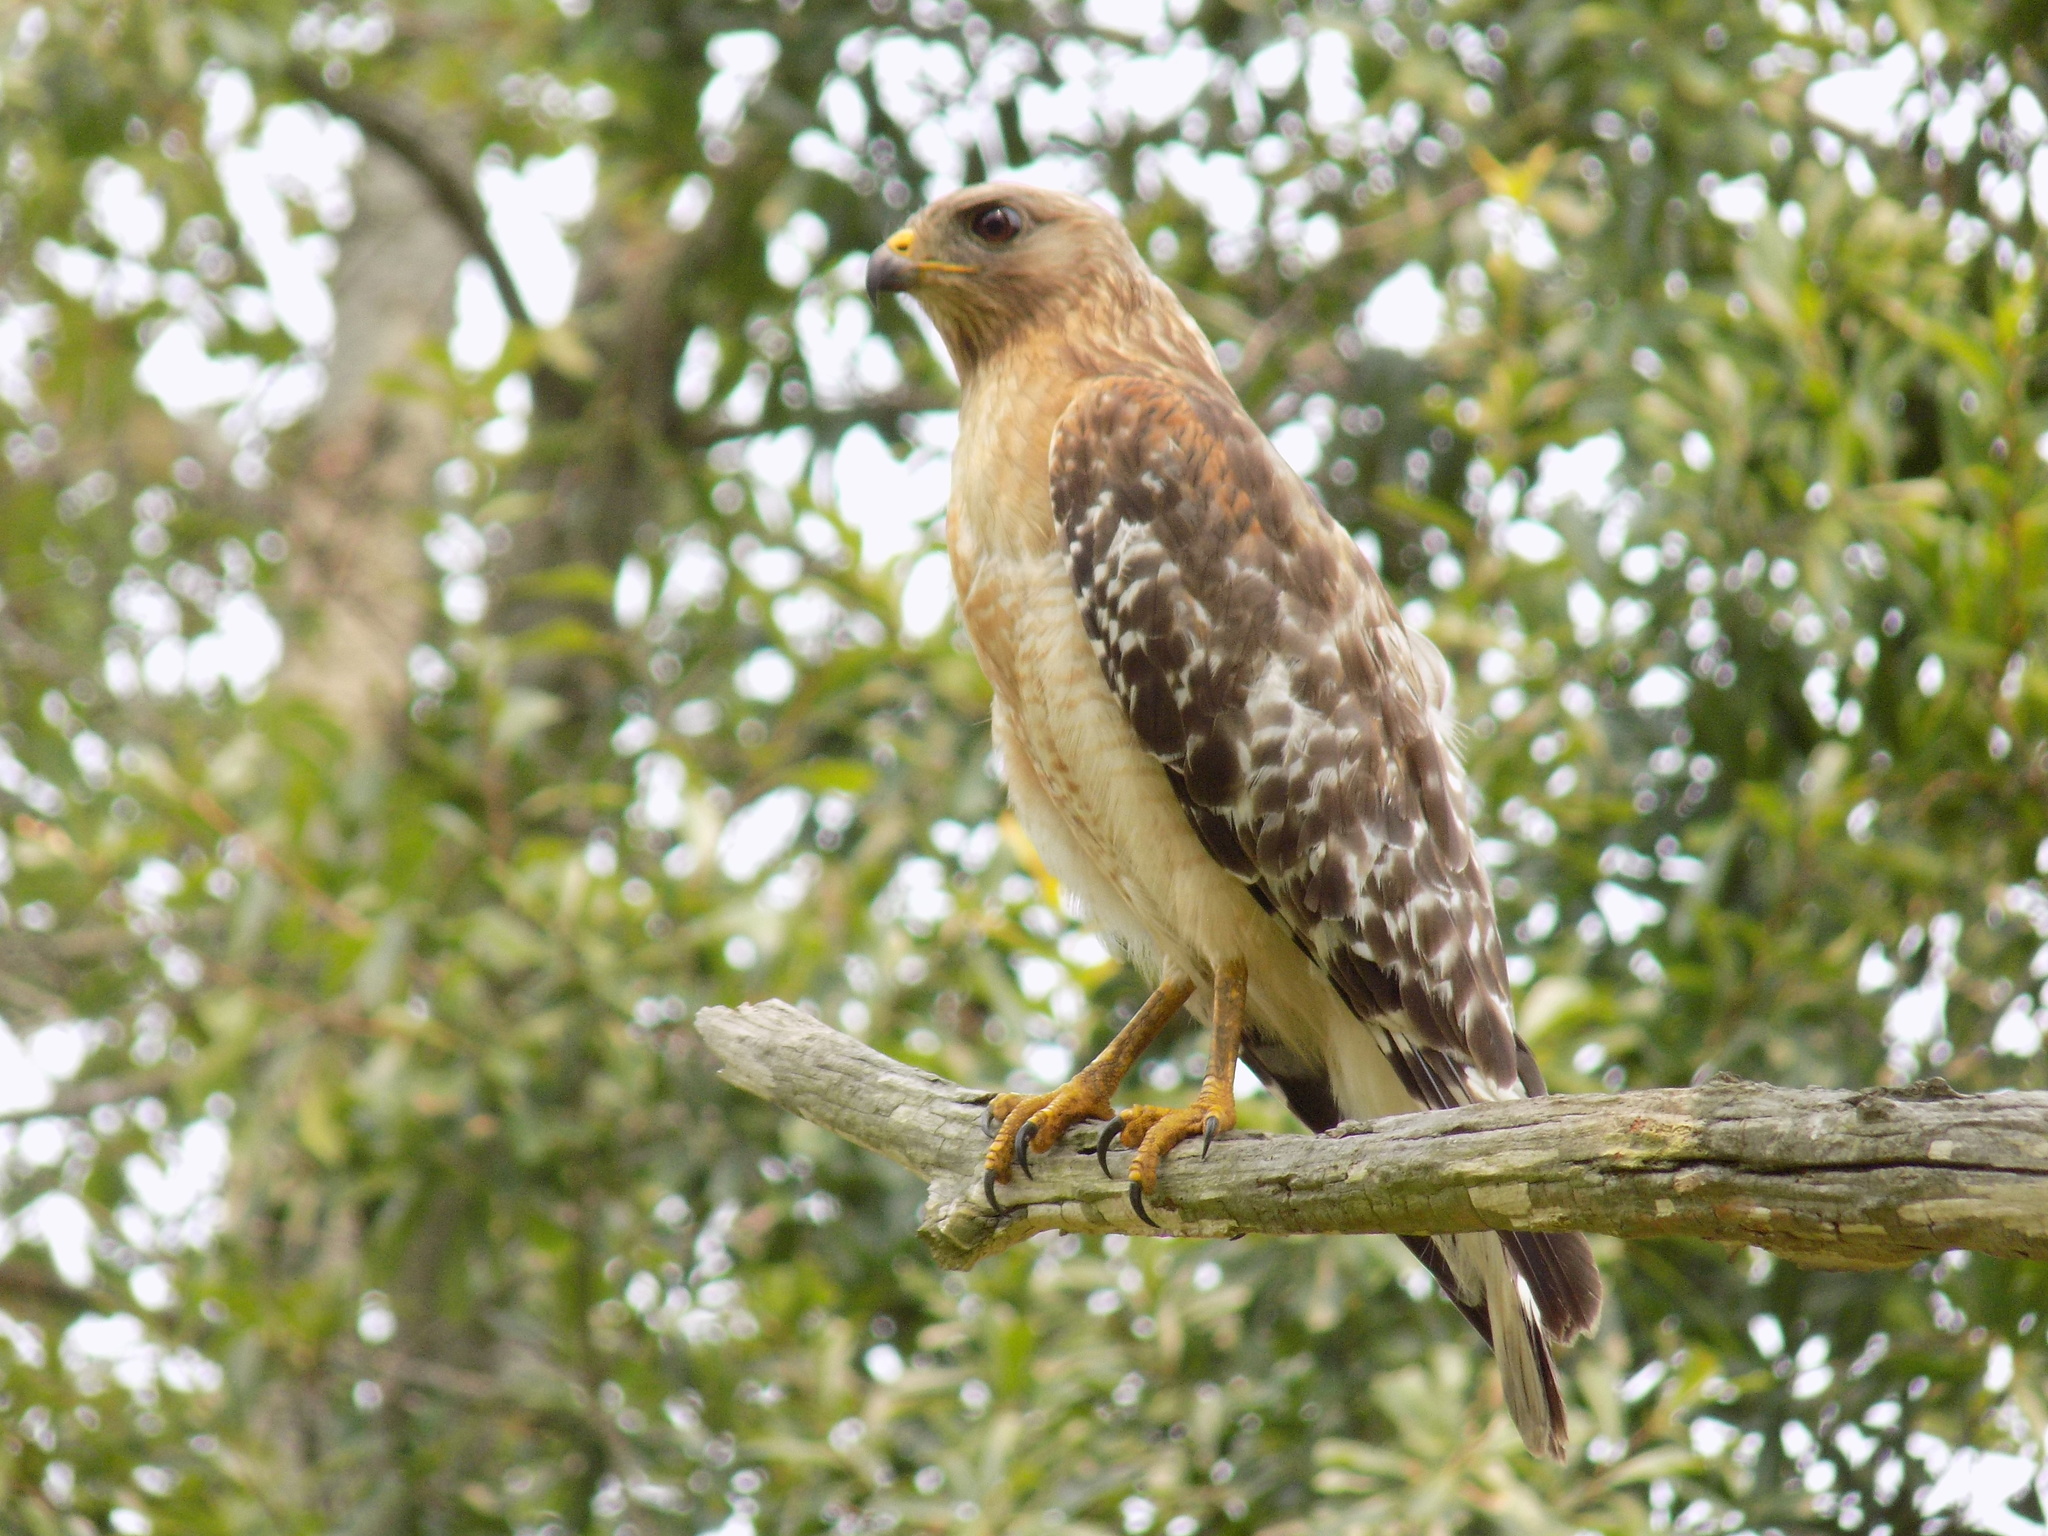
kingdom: Animalia
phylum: Chordata
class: Aves
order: Accipitriformes
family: Accipitridae
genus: Buteo
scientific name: Buteo lineatus
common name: Red-shouldered hawk
